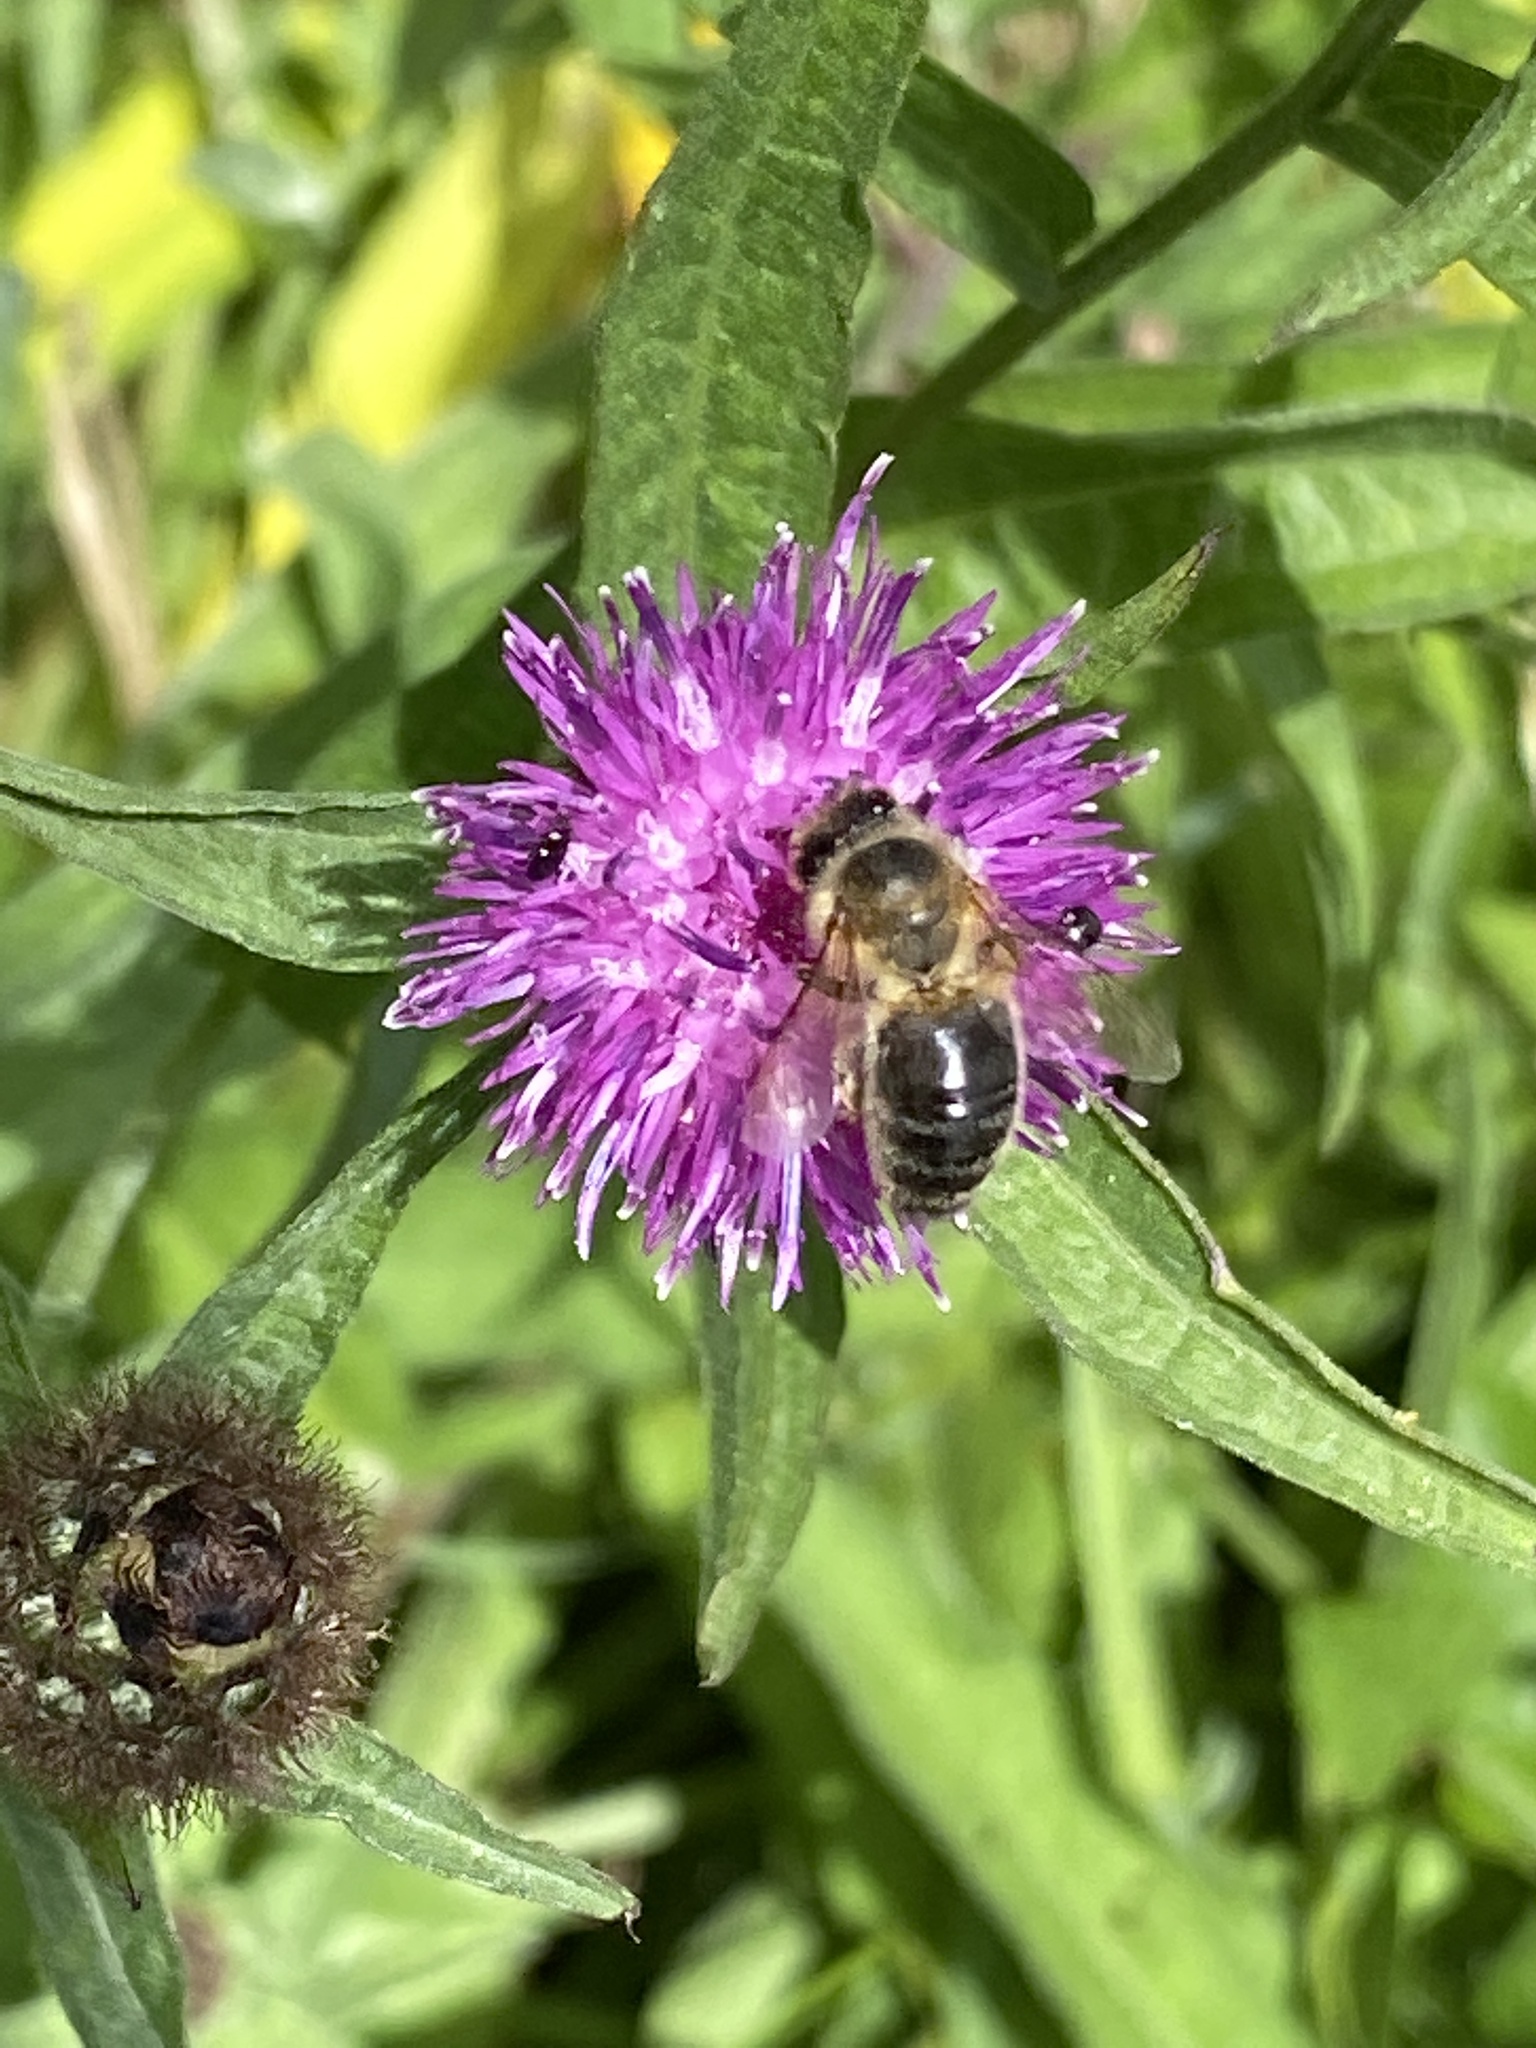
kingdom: Animalia
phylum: Arthropoda
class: Insecta
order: Hymenoptera
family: Apidae
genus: Apis
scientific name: Apis mellifera
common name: Honey bee
